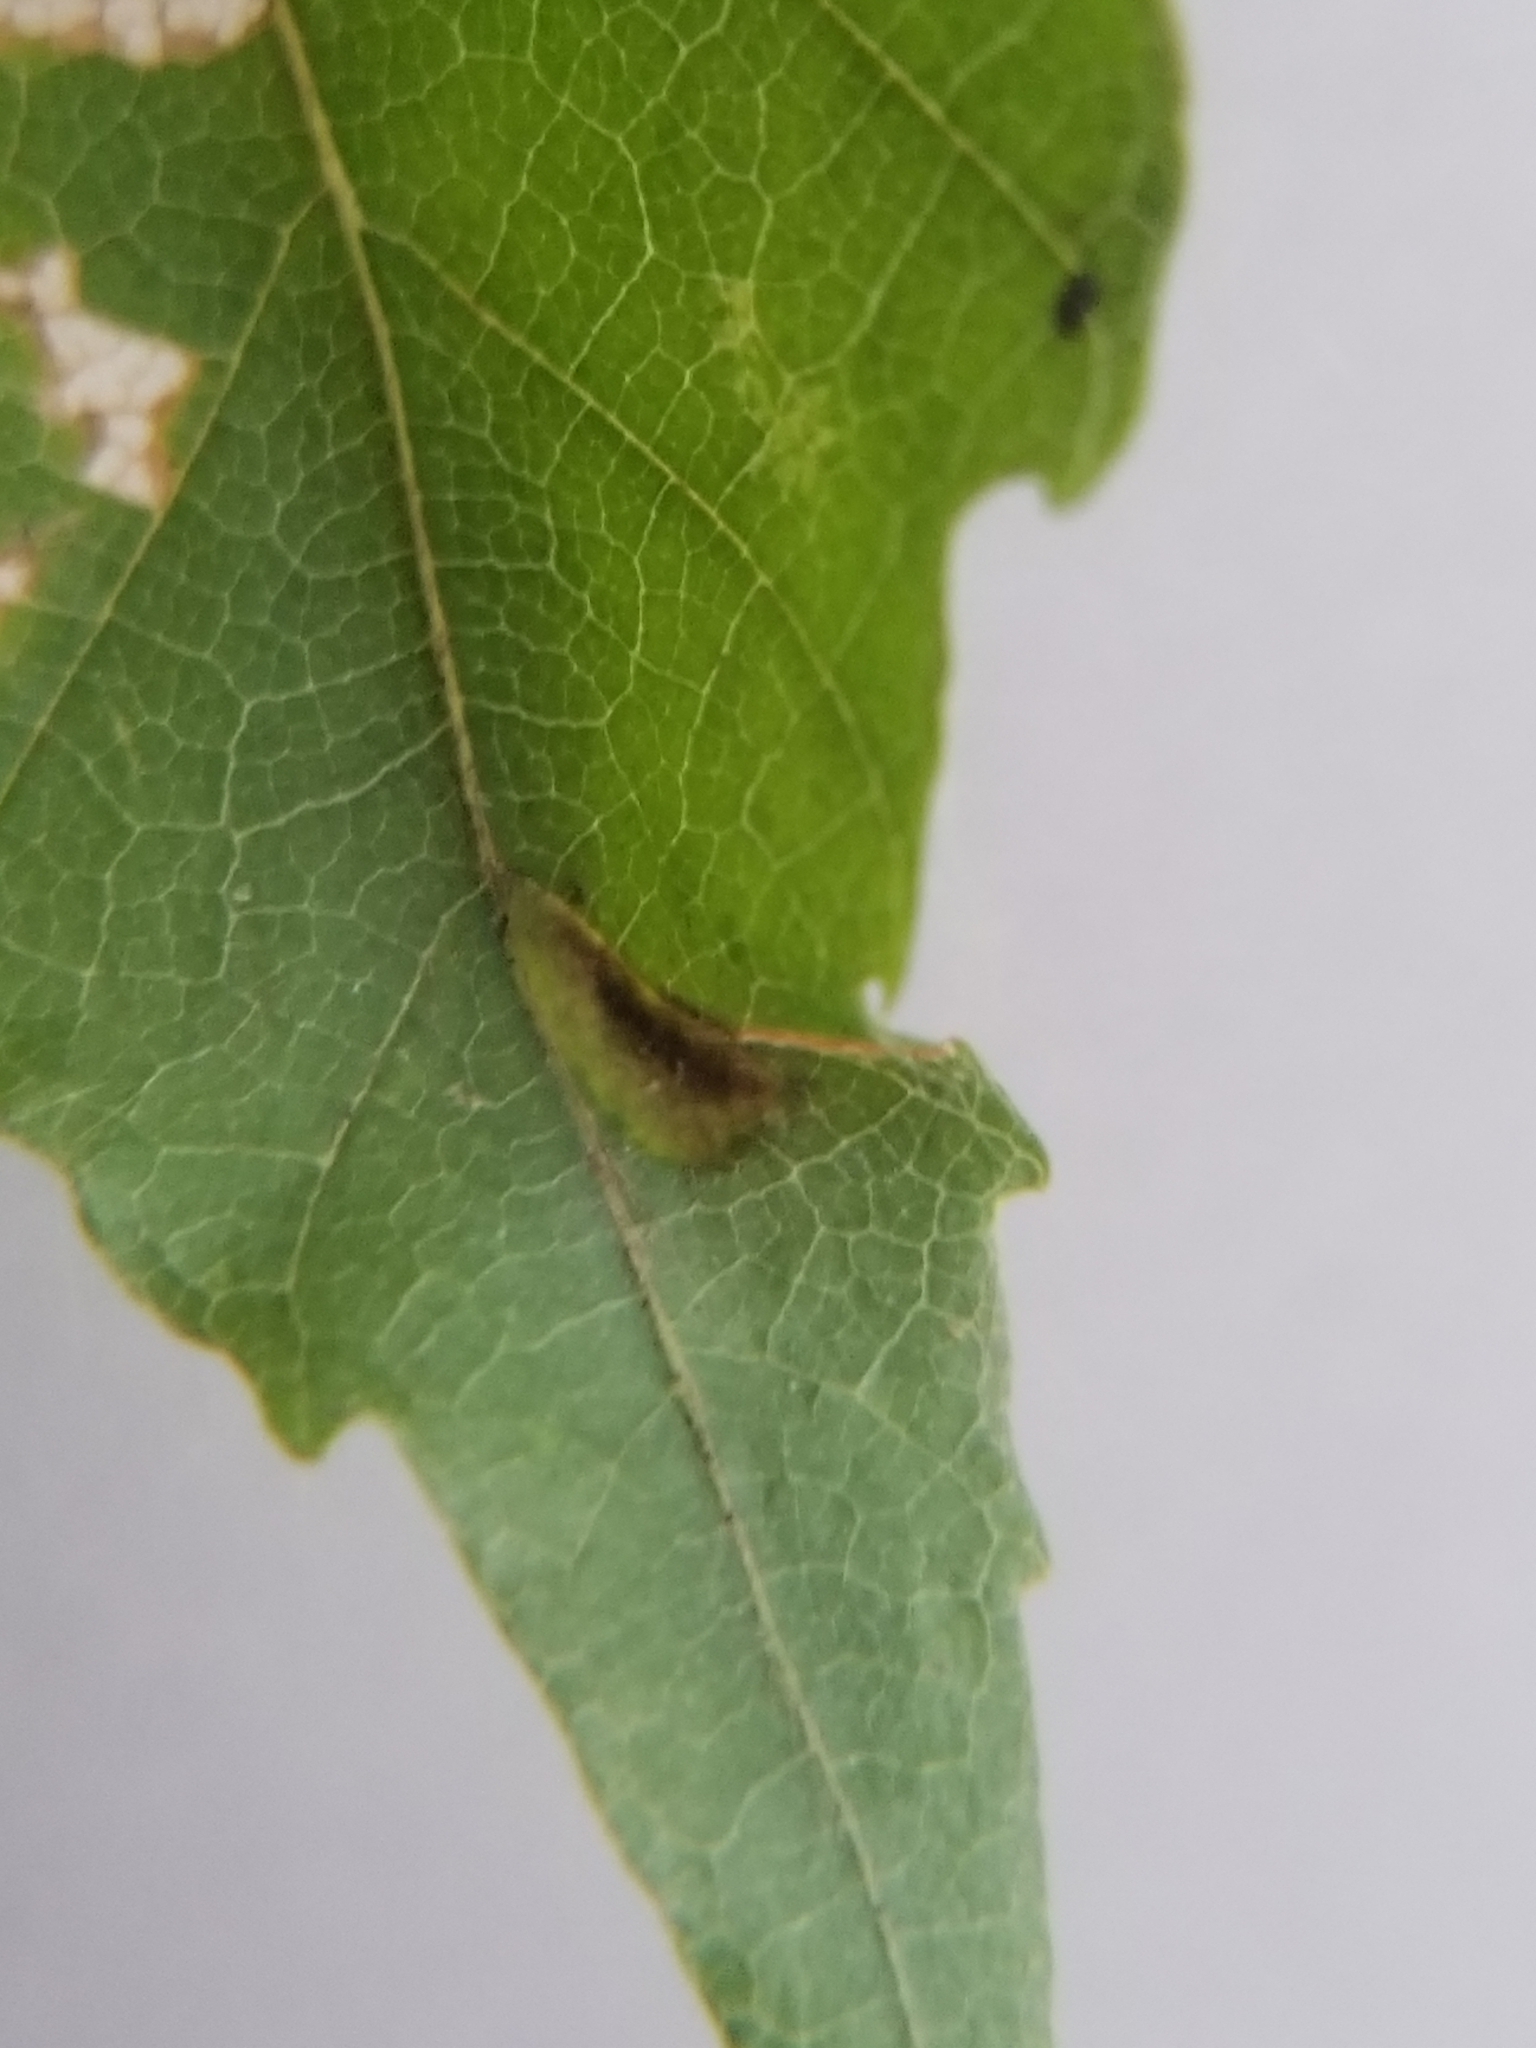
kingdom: Animalia
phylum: Arthropoda
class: Insecta
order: Lepidoptera
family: Incurvariidae
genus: Paraclemensia
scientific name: Paraclemensia acerifoliella
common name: Maple leafcutter
